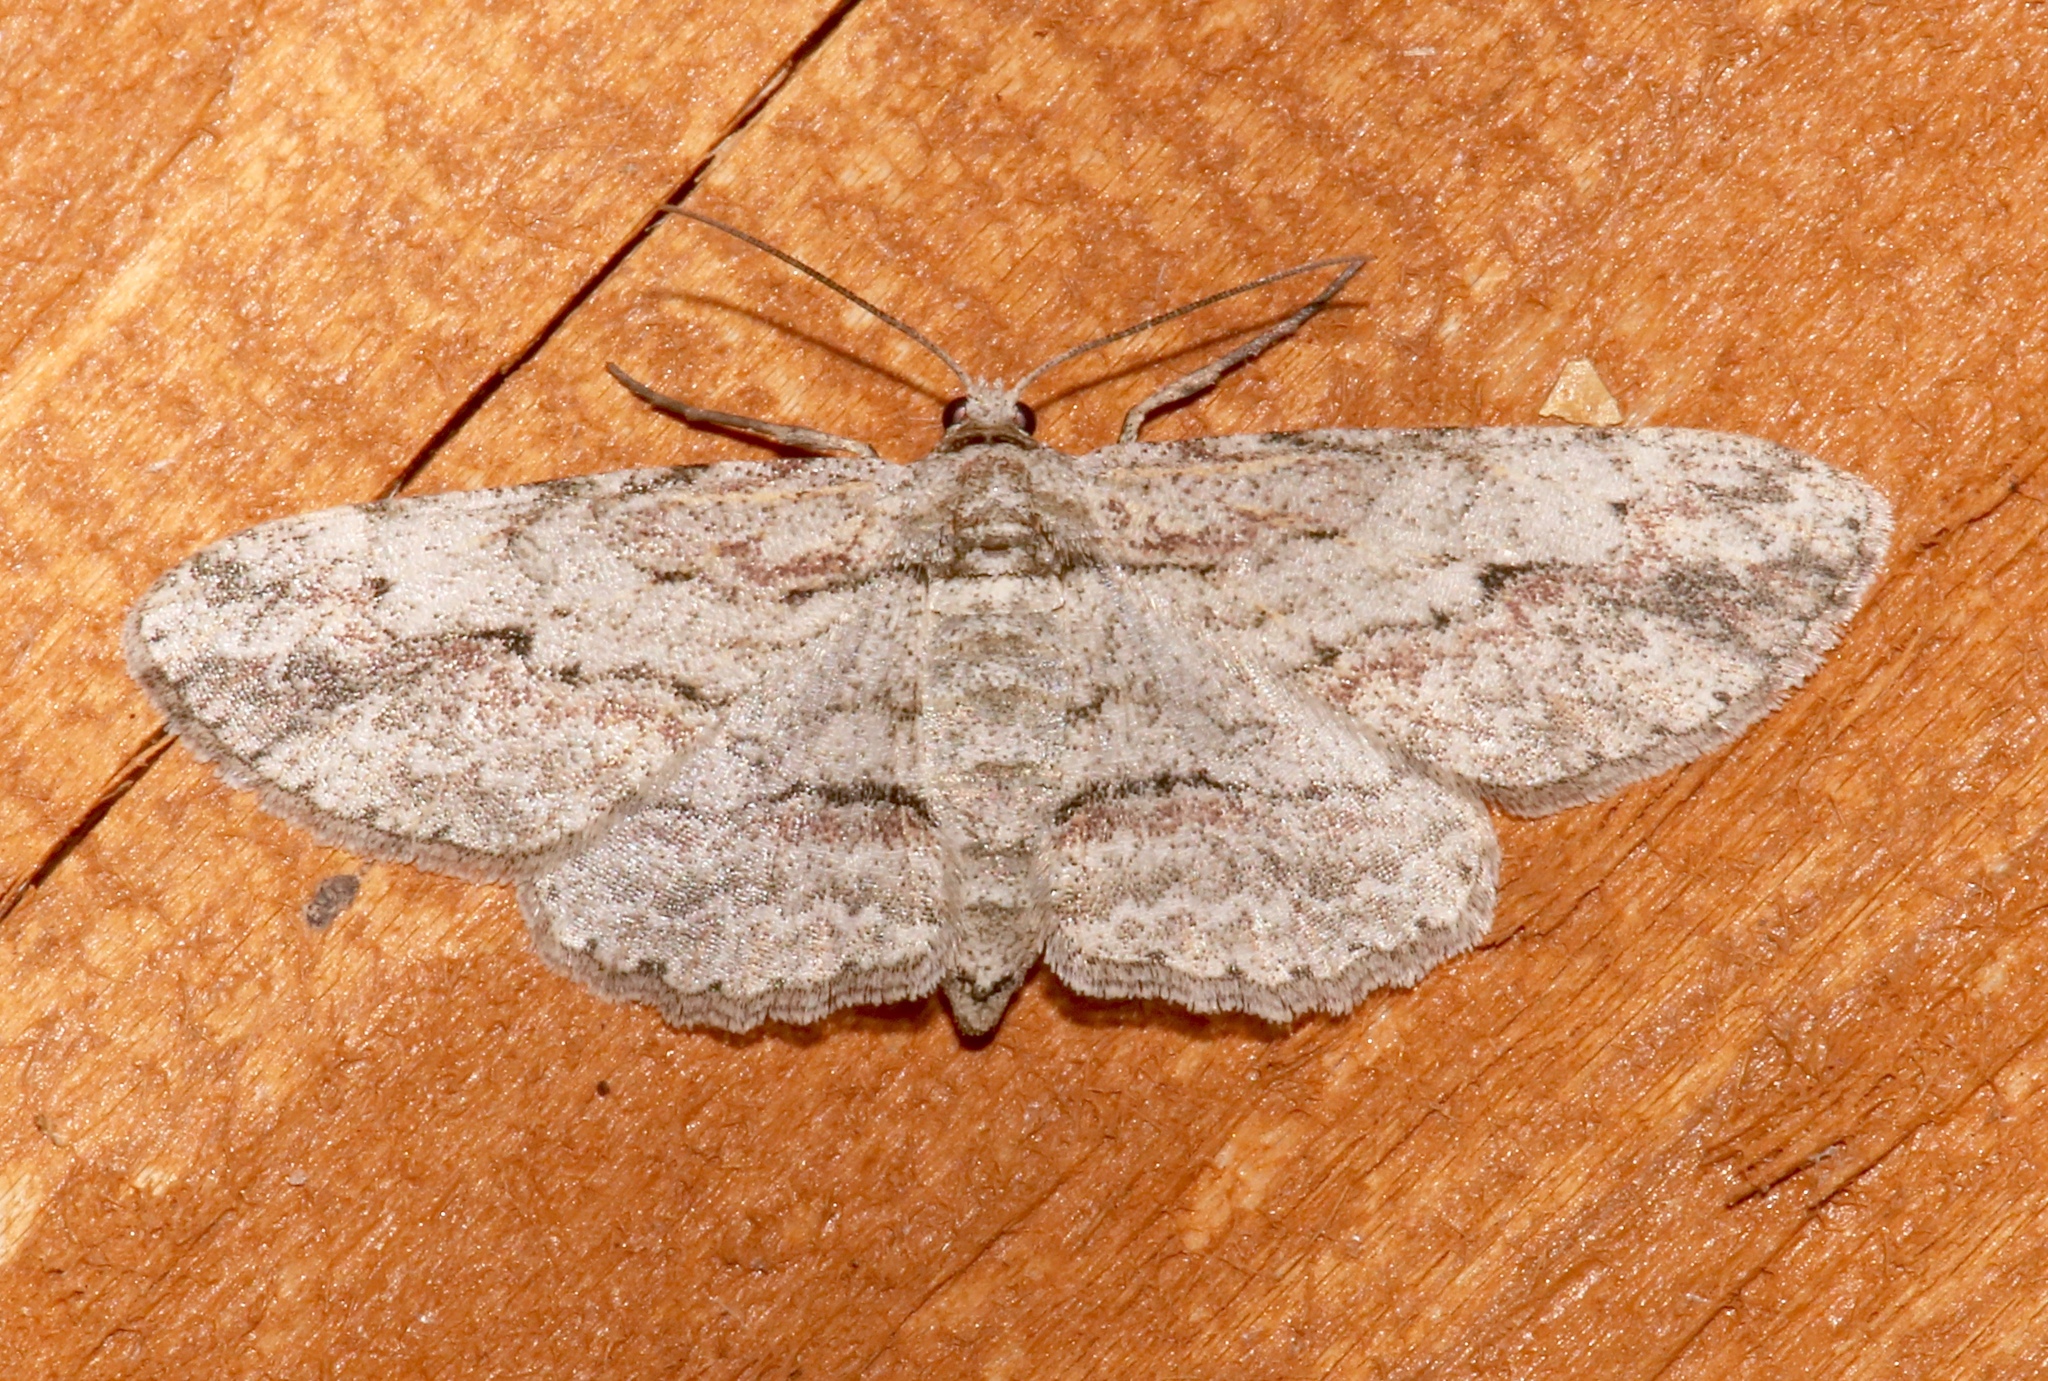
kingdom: Animalia
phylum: Arthropoda
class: Insecta
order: Lepidoptera
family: Geometridae
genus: Anavitrinella
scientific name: Anavitrinella pampinaria
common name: Common gray
